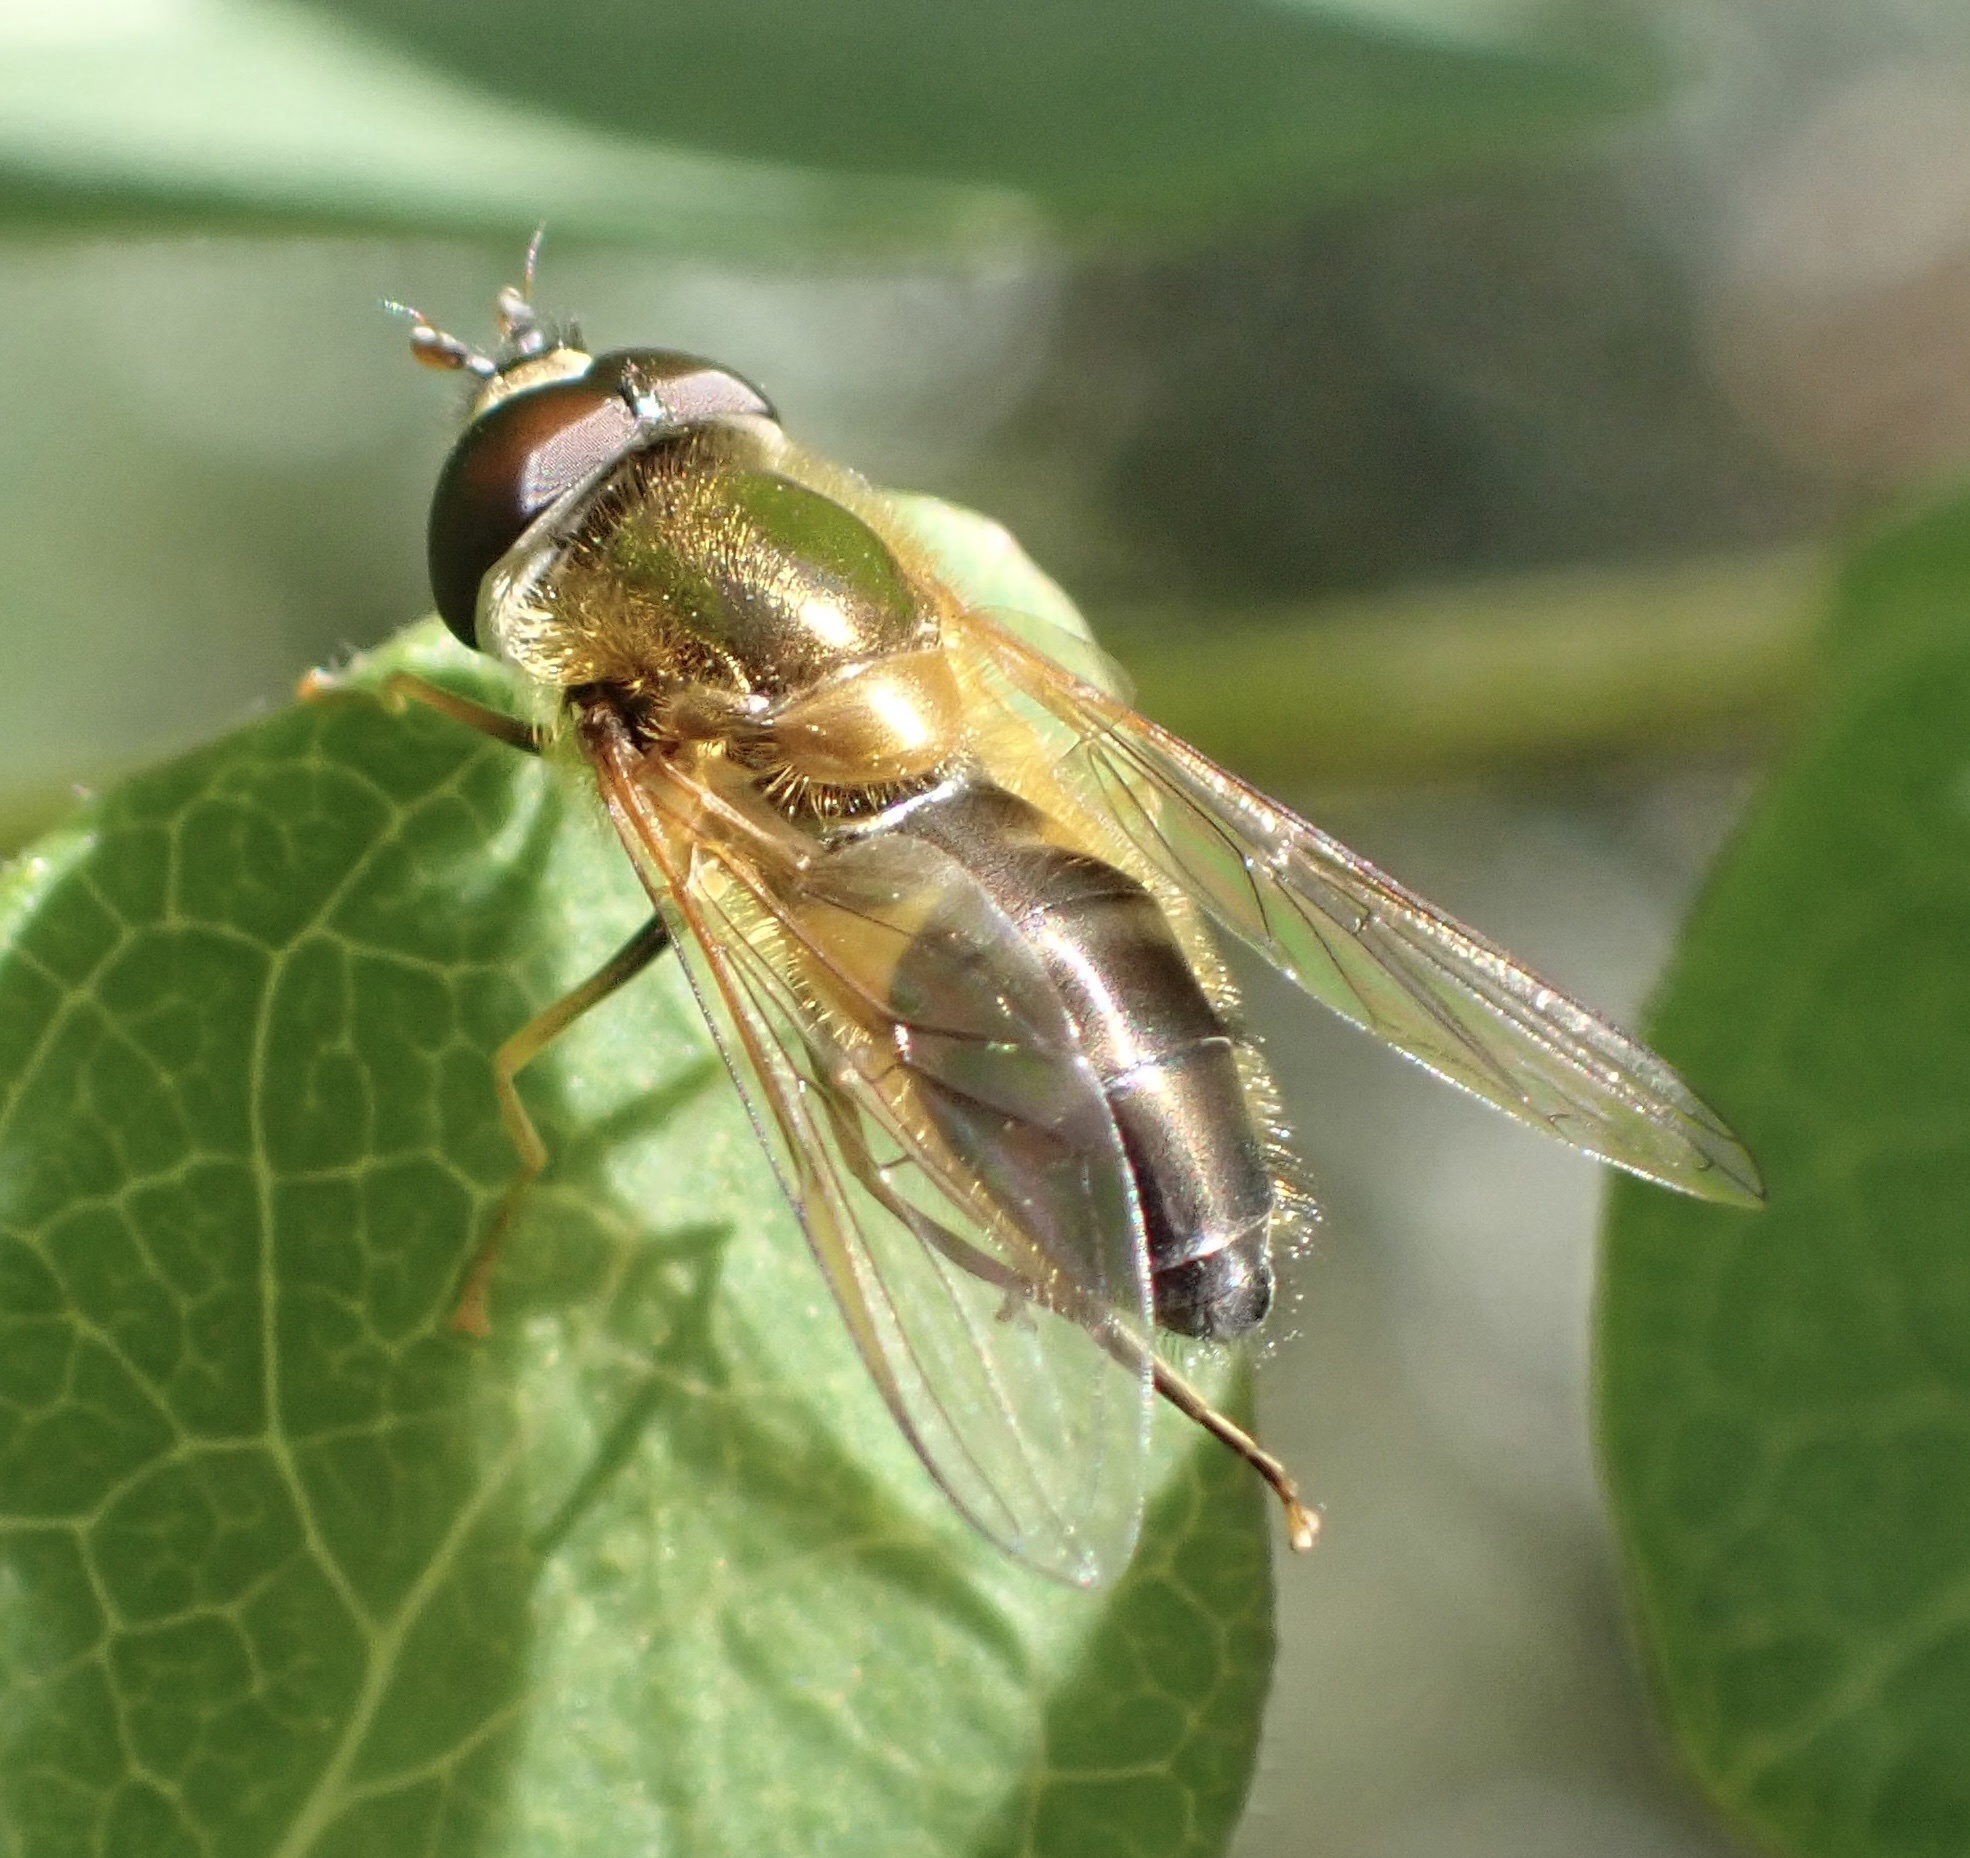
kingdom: Animalia
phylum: Arthropoda
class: Insecta
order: Diptera
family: Syrphidae
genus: Epistrophe
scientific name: Epistrophe eligans
